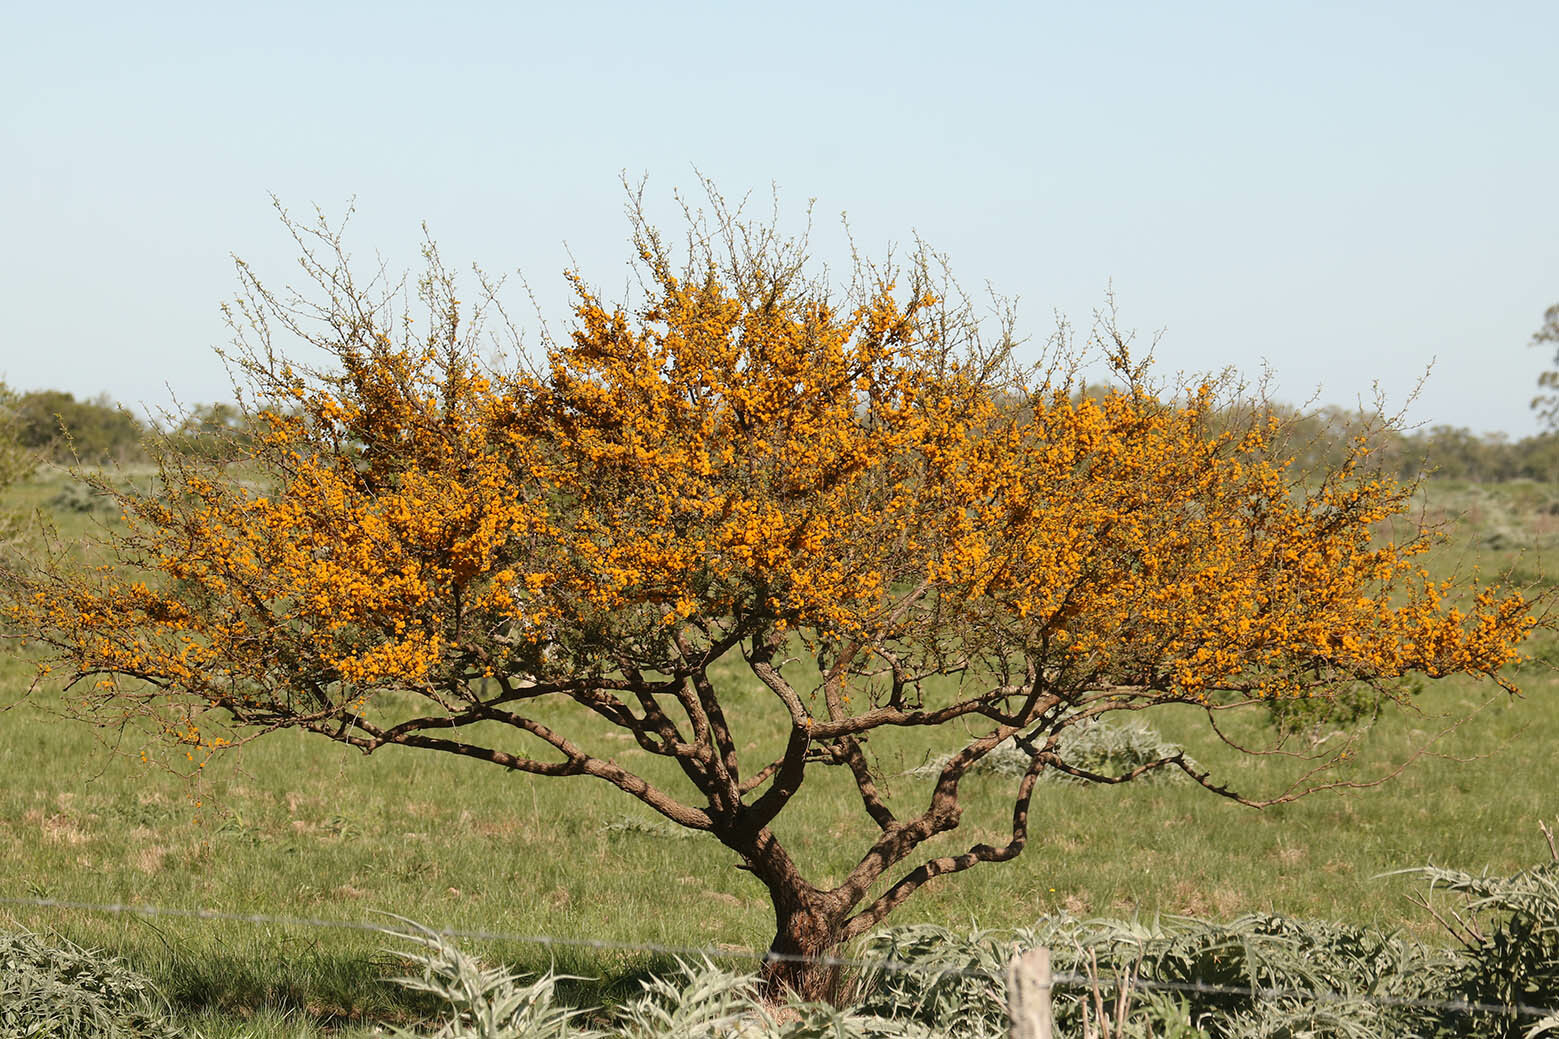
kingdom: Plantae
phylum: Tracheophyta
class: Magnoliopsida
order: Fabales
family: Fabaceae
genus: Vachellia
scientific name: Vachellia caven
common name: Roman cassie
